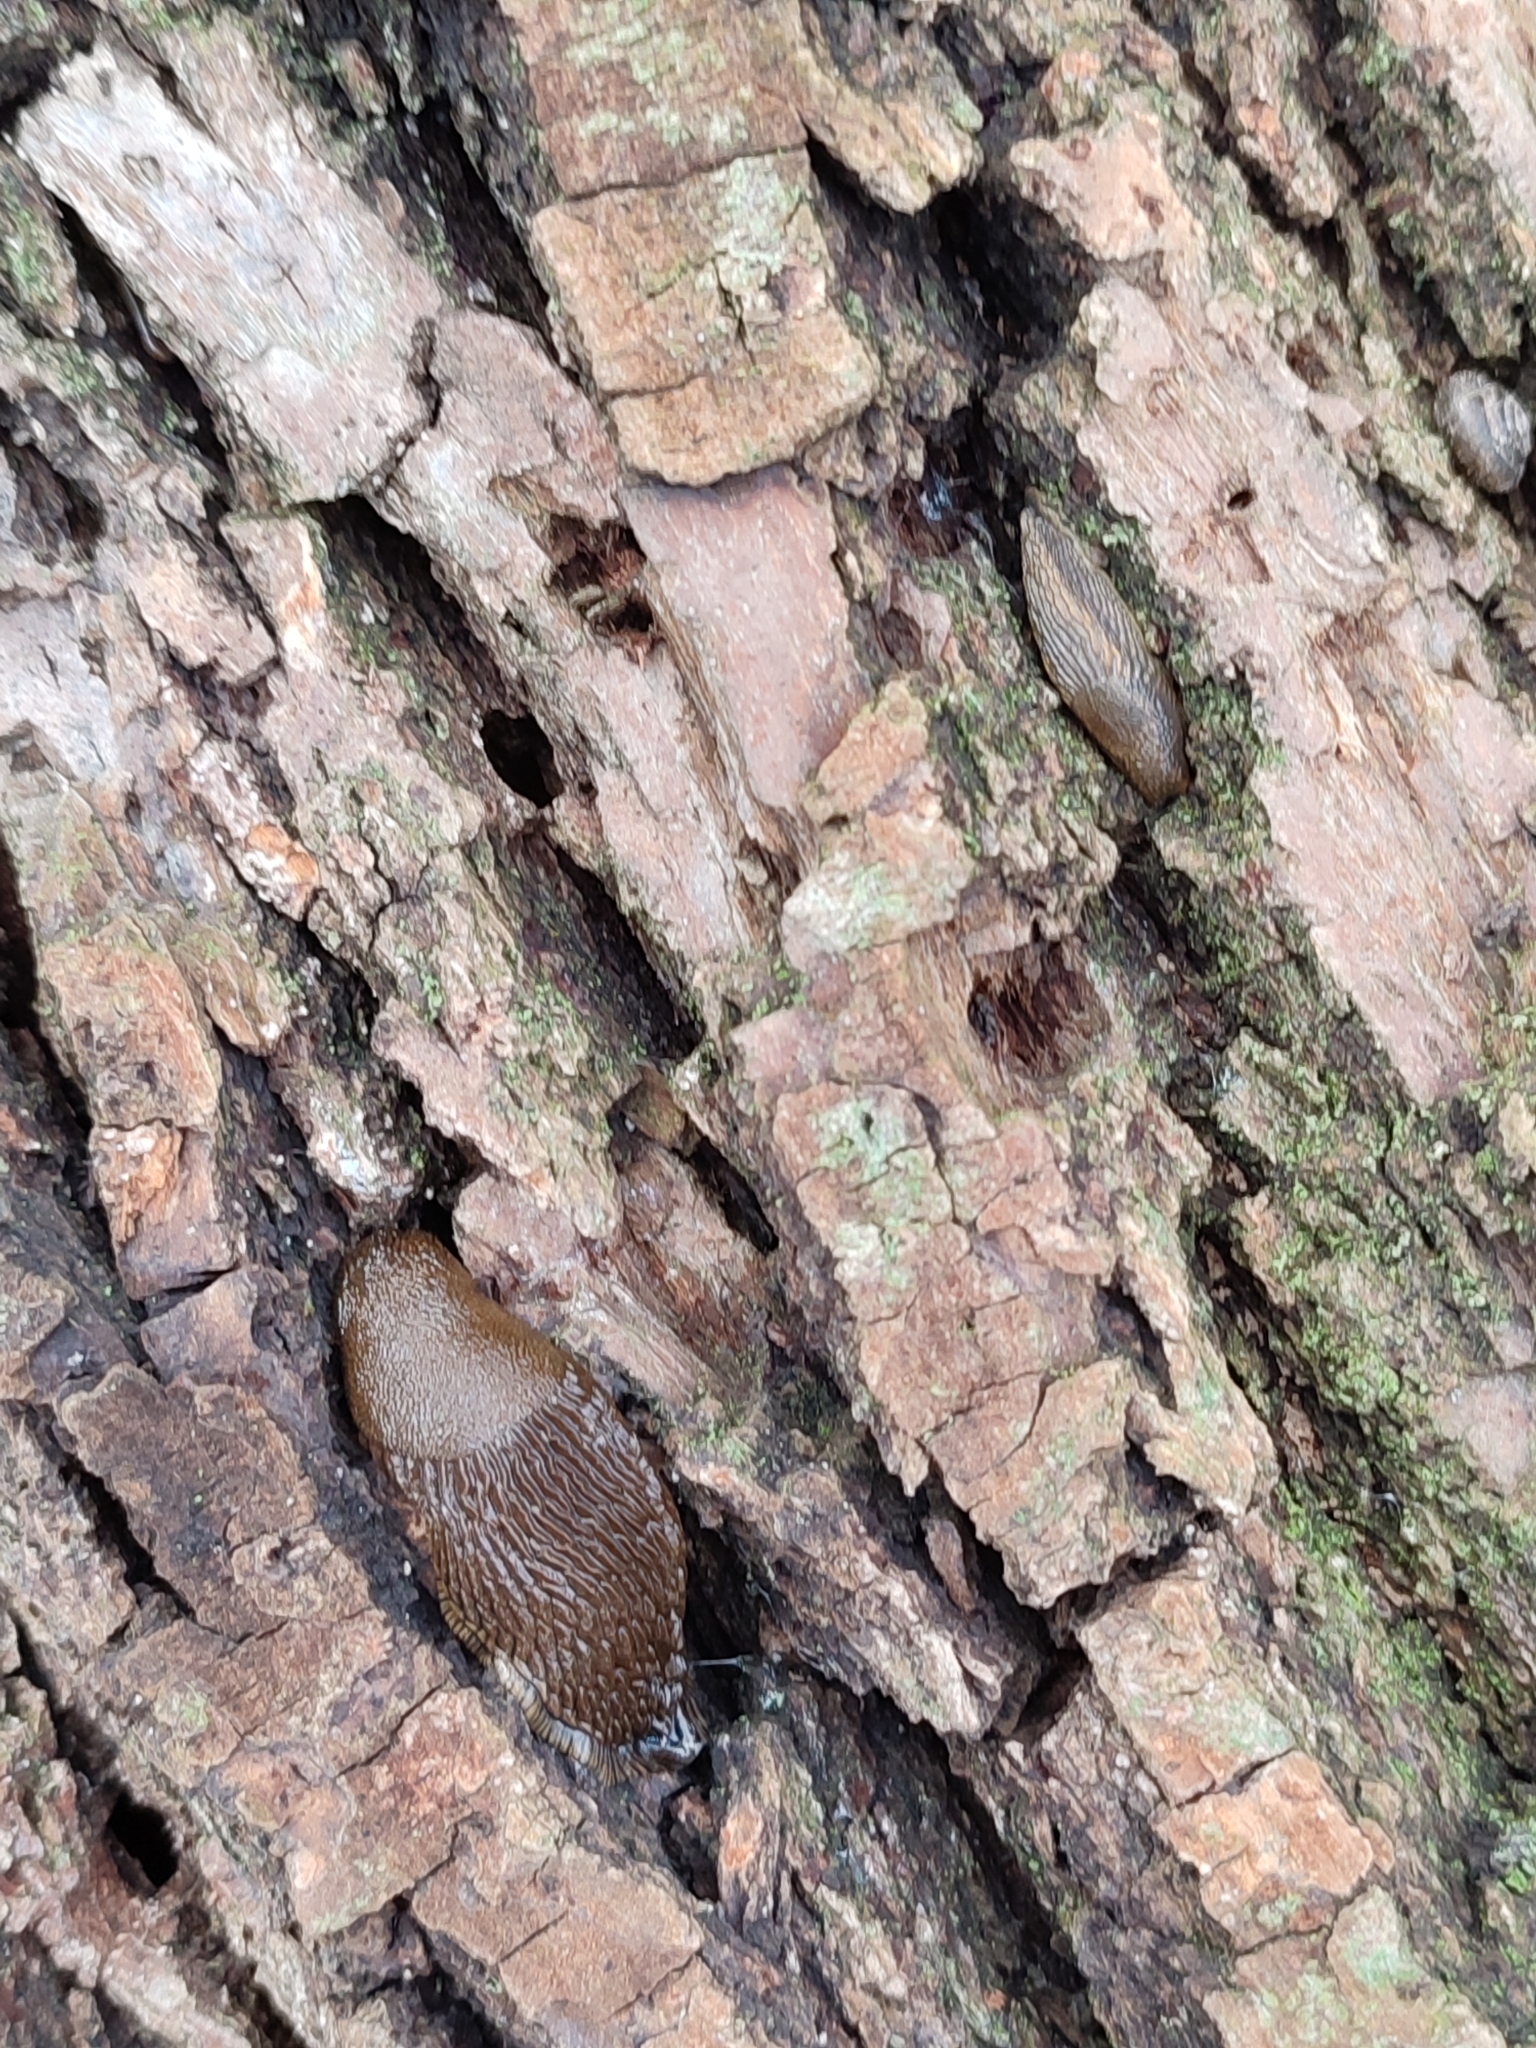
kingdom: Animalia
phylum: Mollusca
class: Gastropoda
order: Stylommatophora
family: Arionidae
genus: Arion
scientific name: Arion vulgaris
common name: Lusitanian slug
